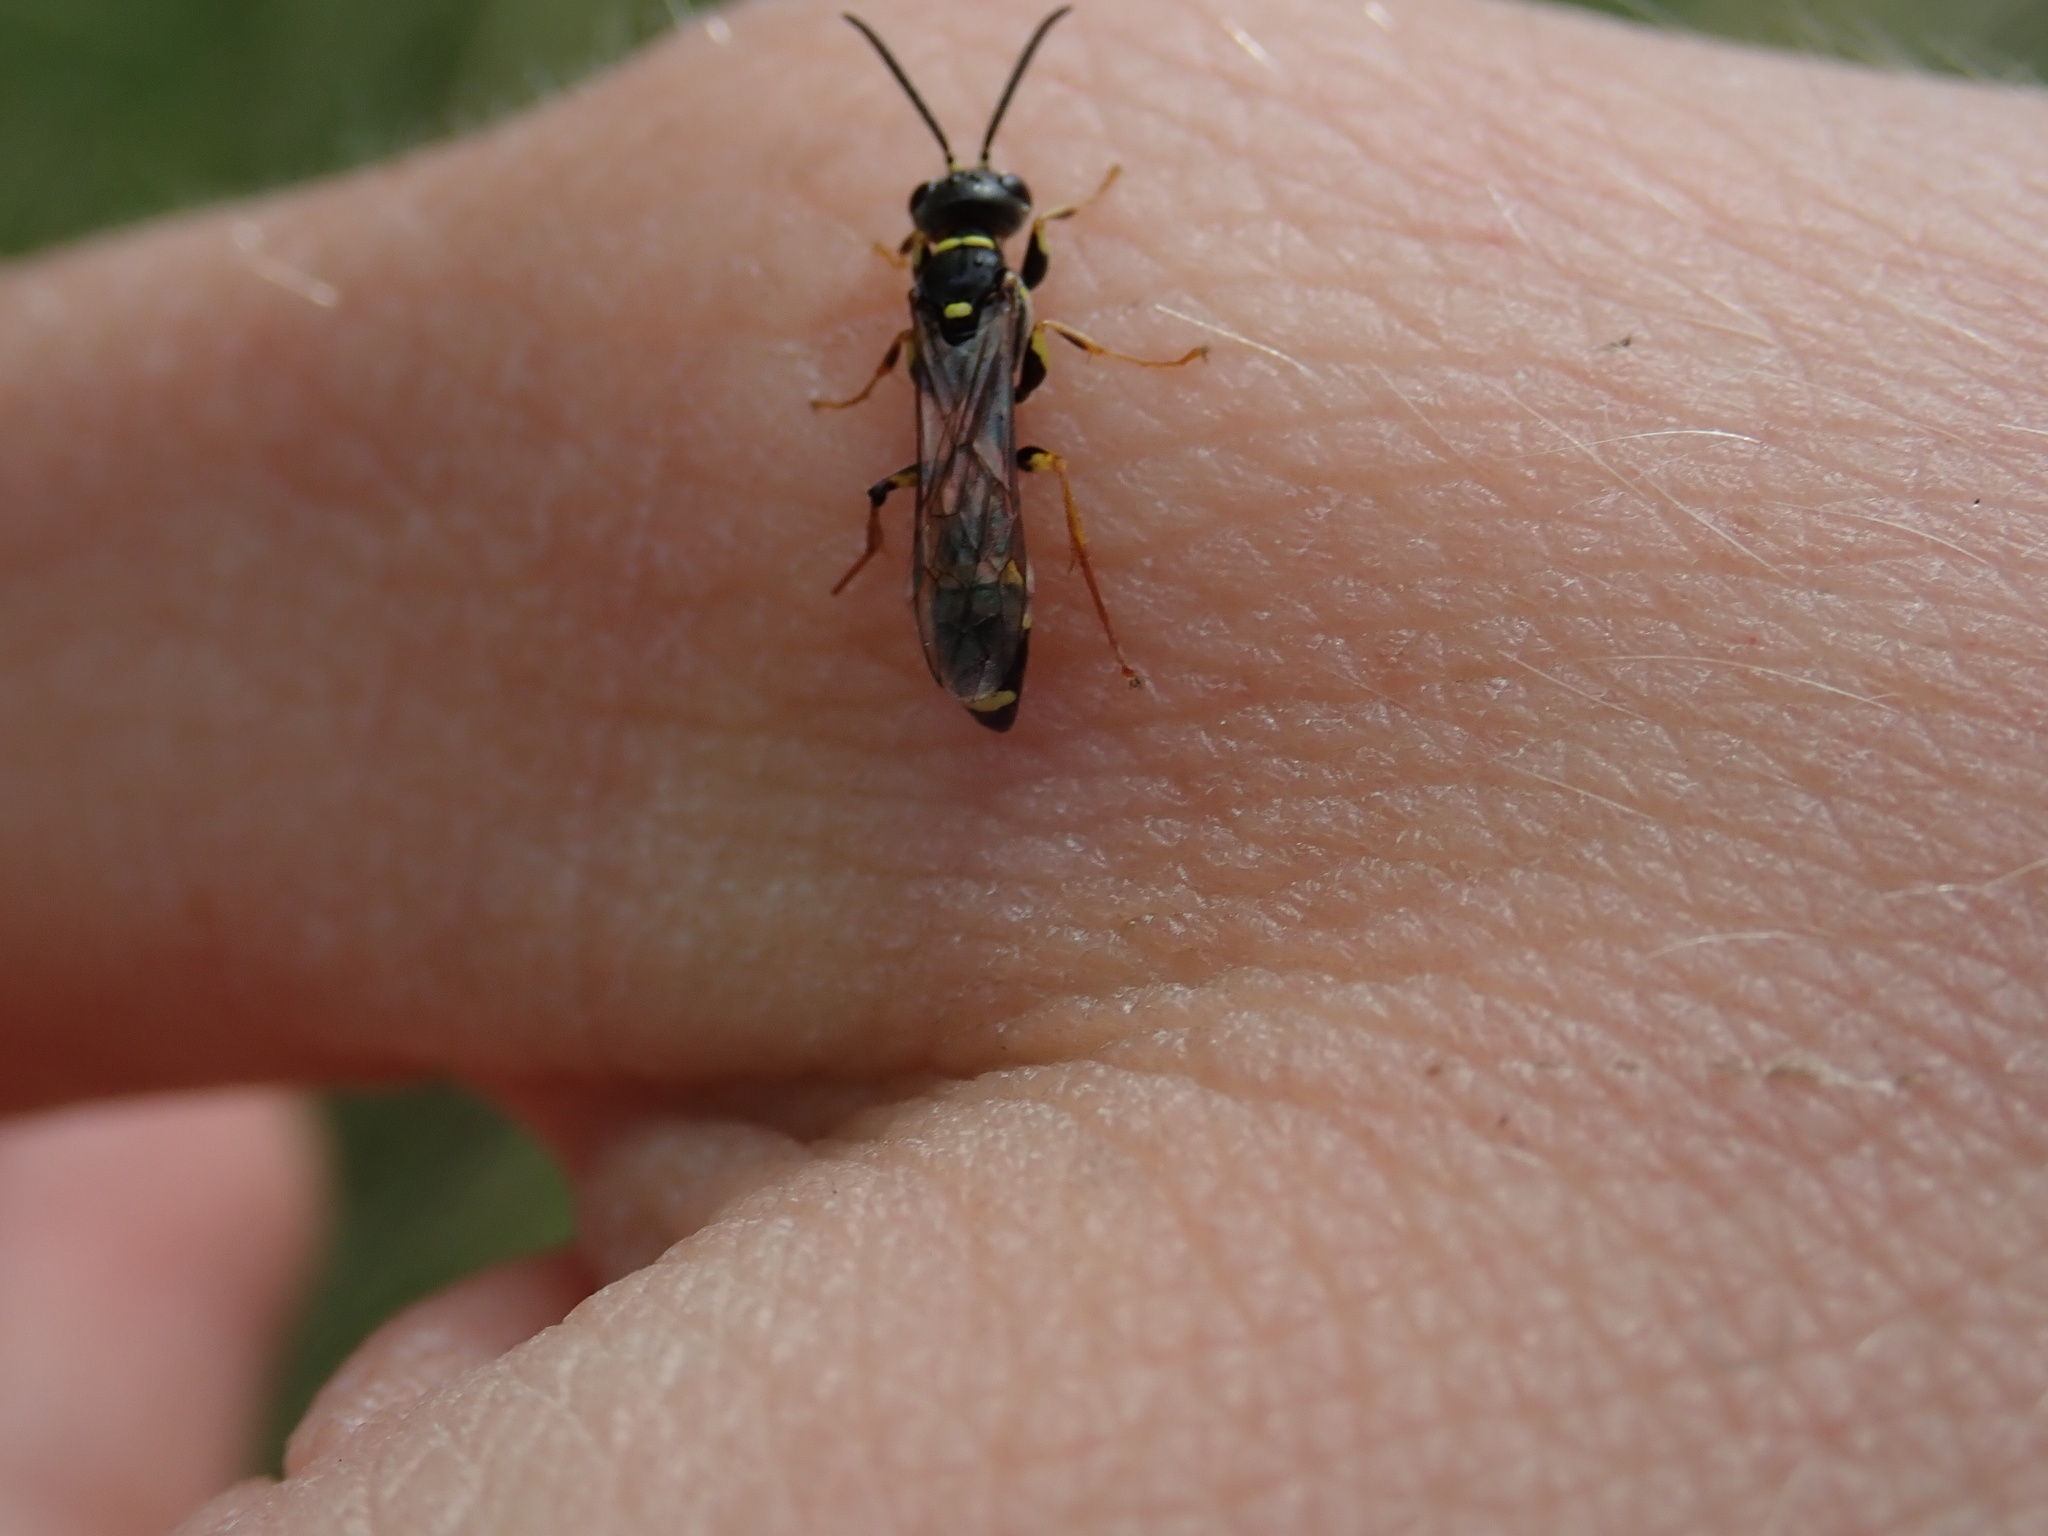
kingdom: Animalia
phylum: Arthropoda
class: Insecta
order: Hymenoptera
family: Crabronidae
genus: Mellinus
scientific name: Mellinus arvensis
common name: Field digger wasp
